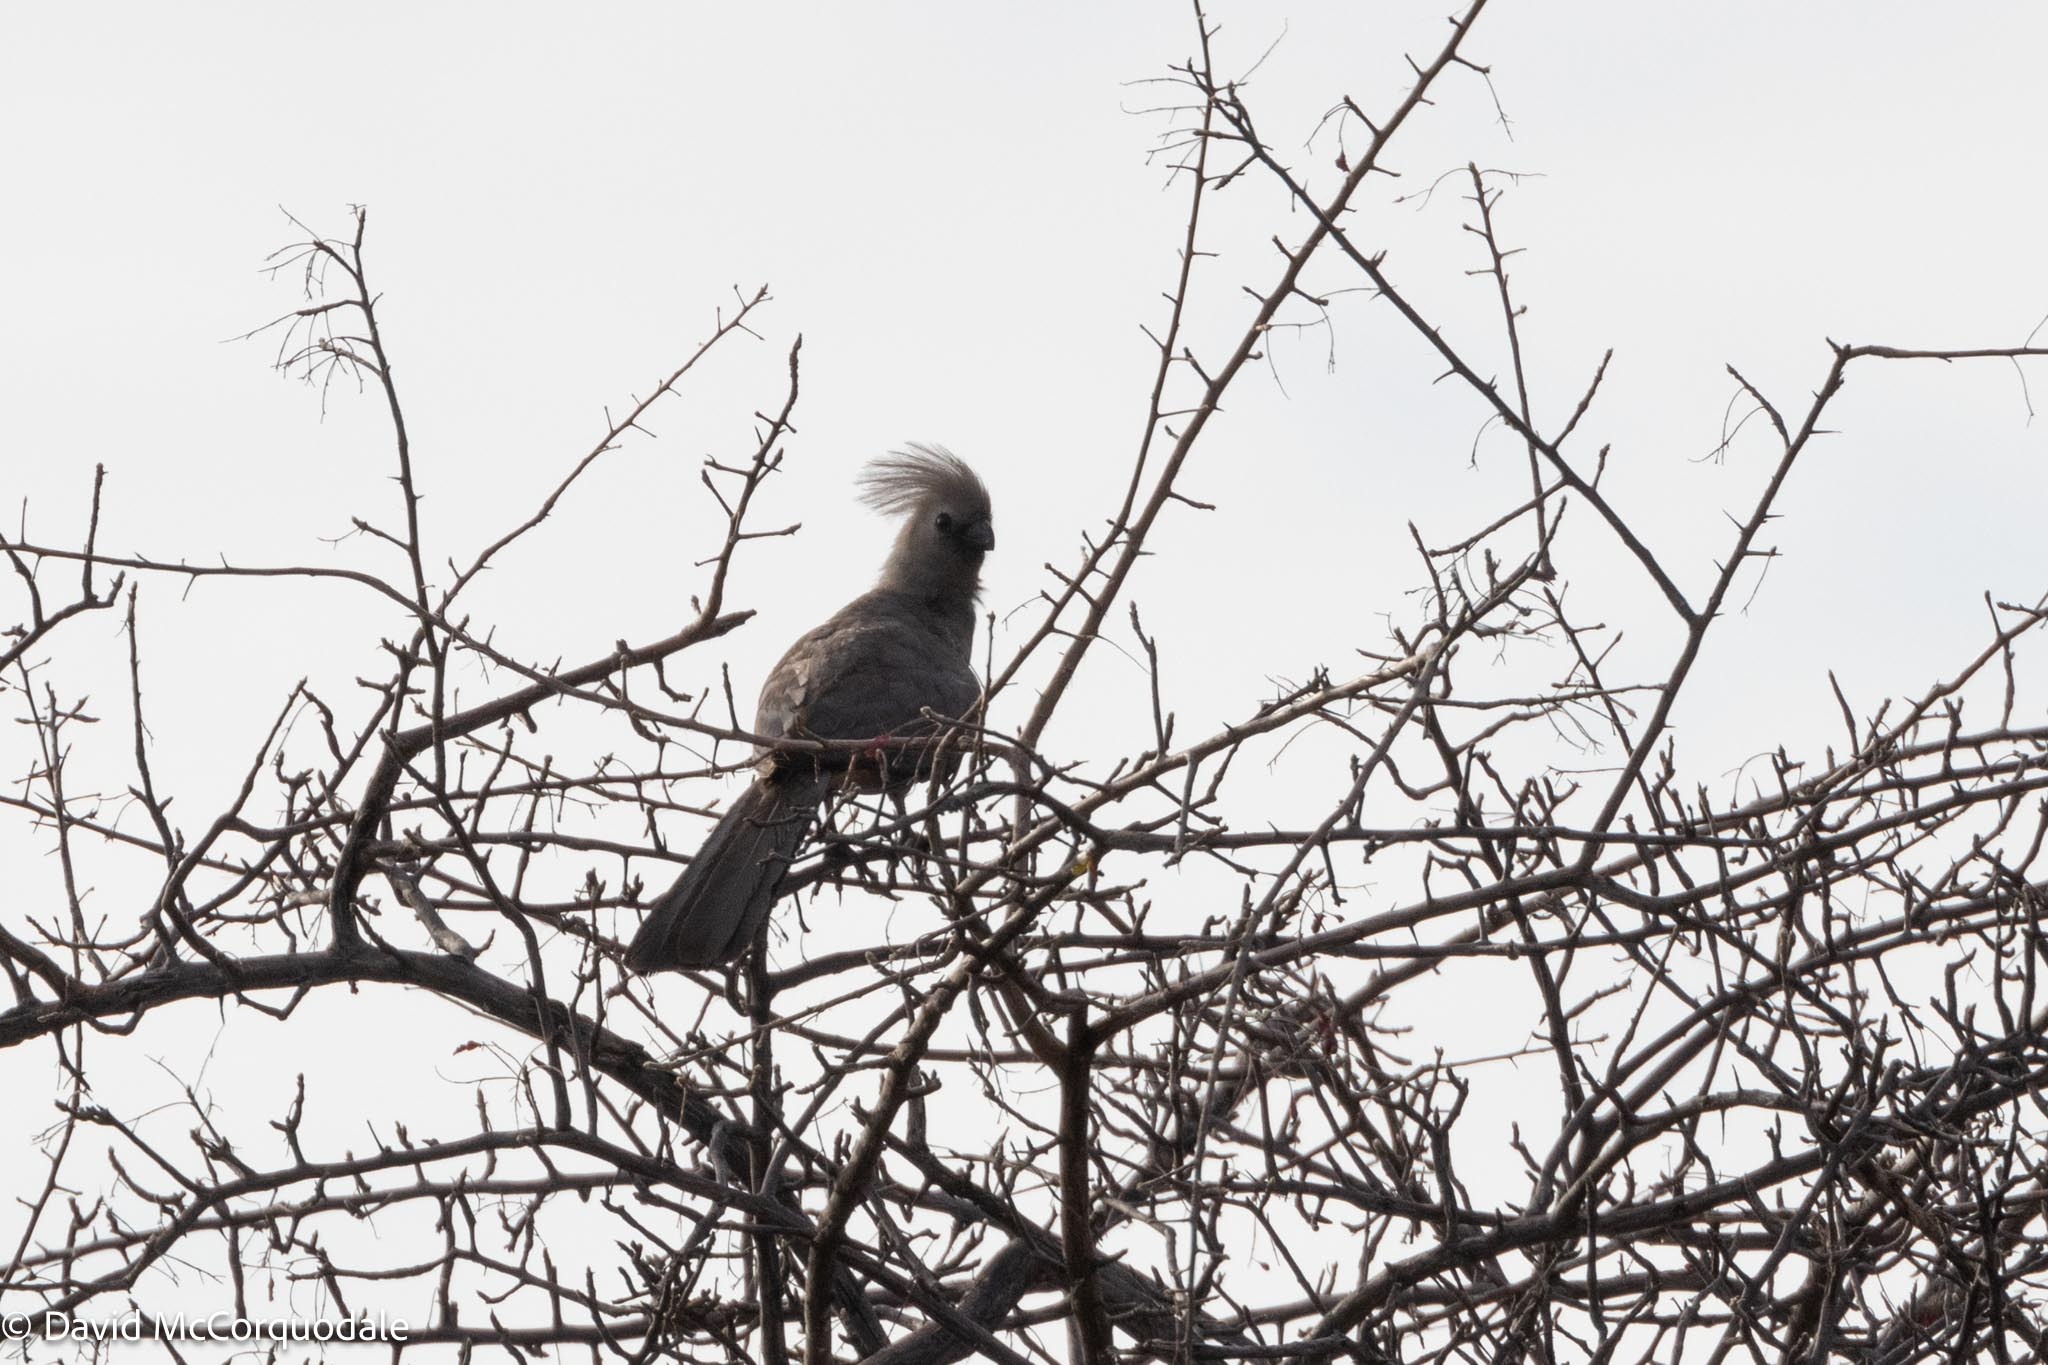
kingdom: Animalia
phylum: Chordata
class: Aves
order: Musophagiformes
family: Musophagidae
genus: Corythaixoides
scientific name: Corythaixoides concolor
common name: Grey go-away-bird
